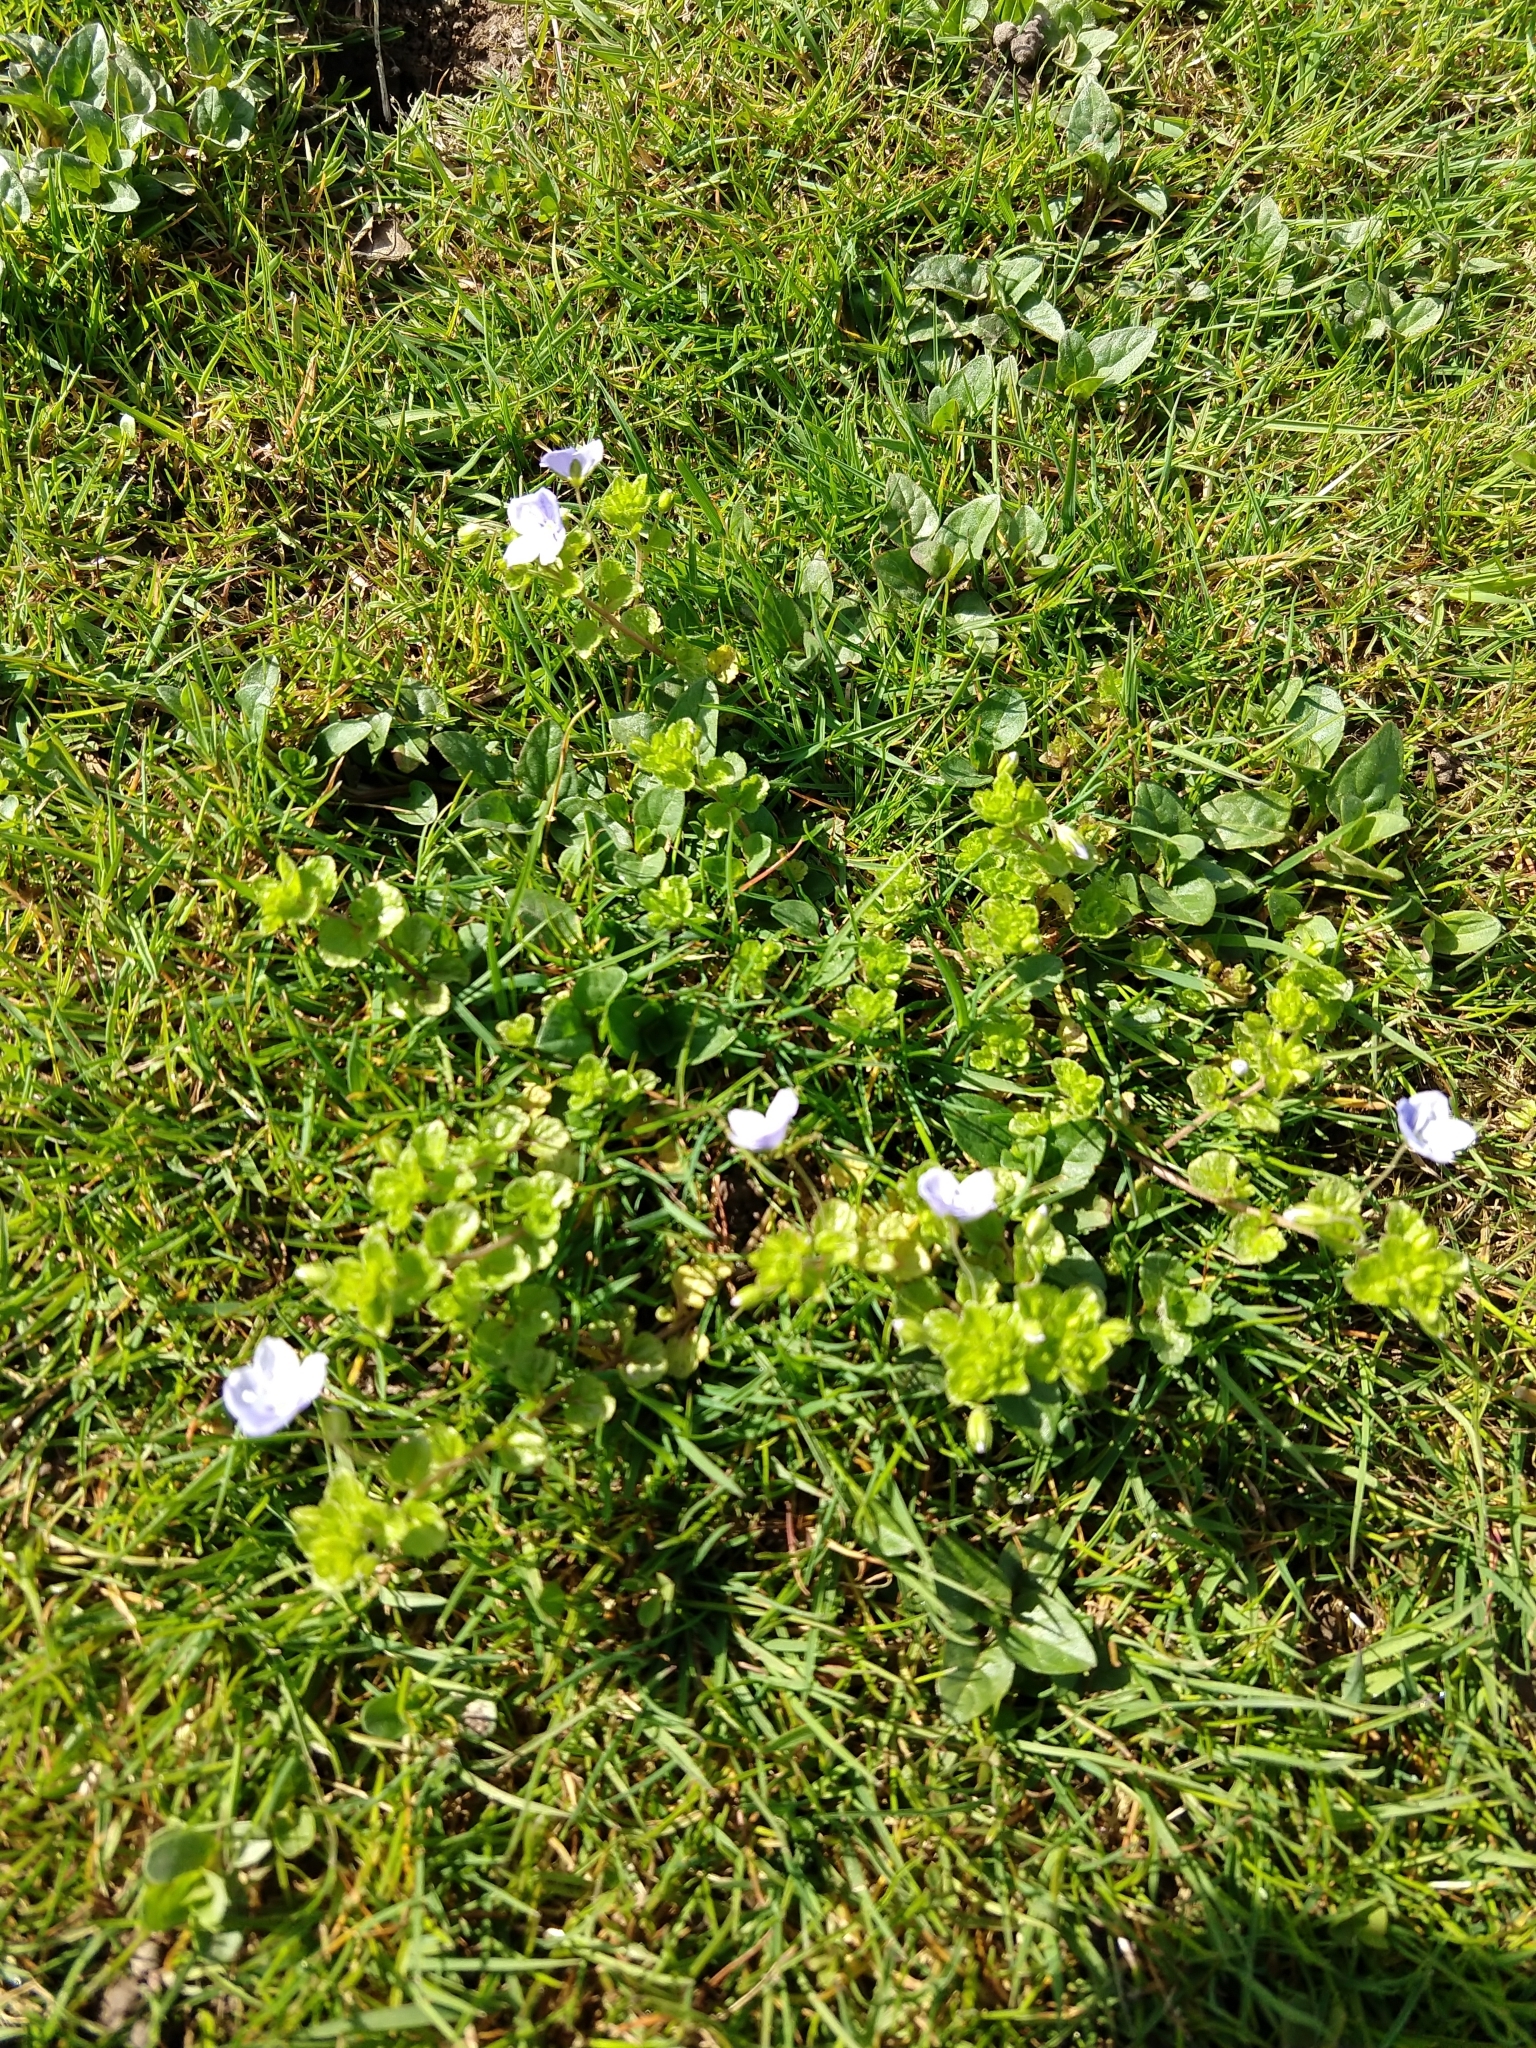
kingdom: Plantae
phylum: Tracheophyta
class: Magnoliopsida
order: Lamiales
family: Plantaginaceae
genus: Veronica
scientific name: Veronica filiformis
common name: Slender speedwell
